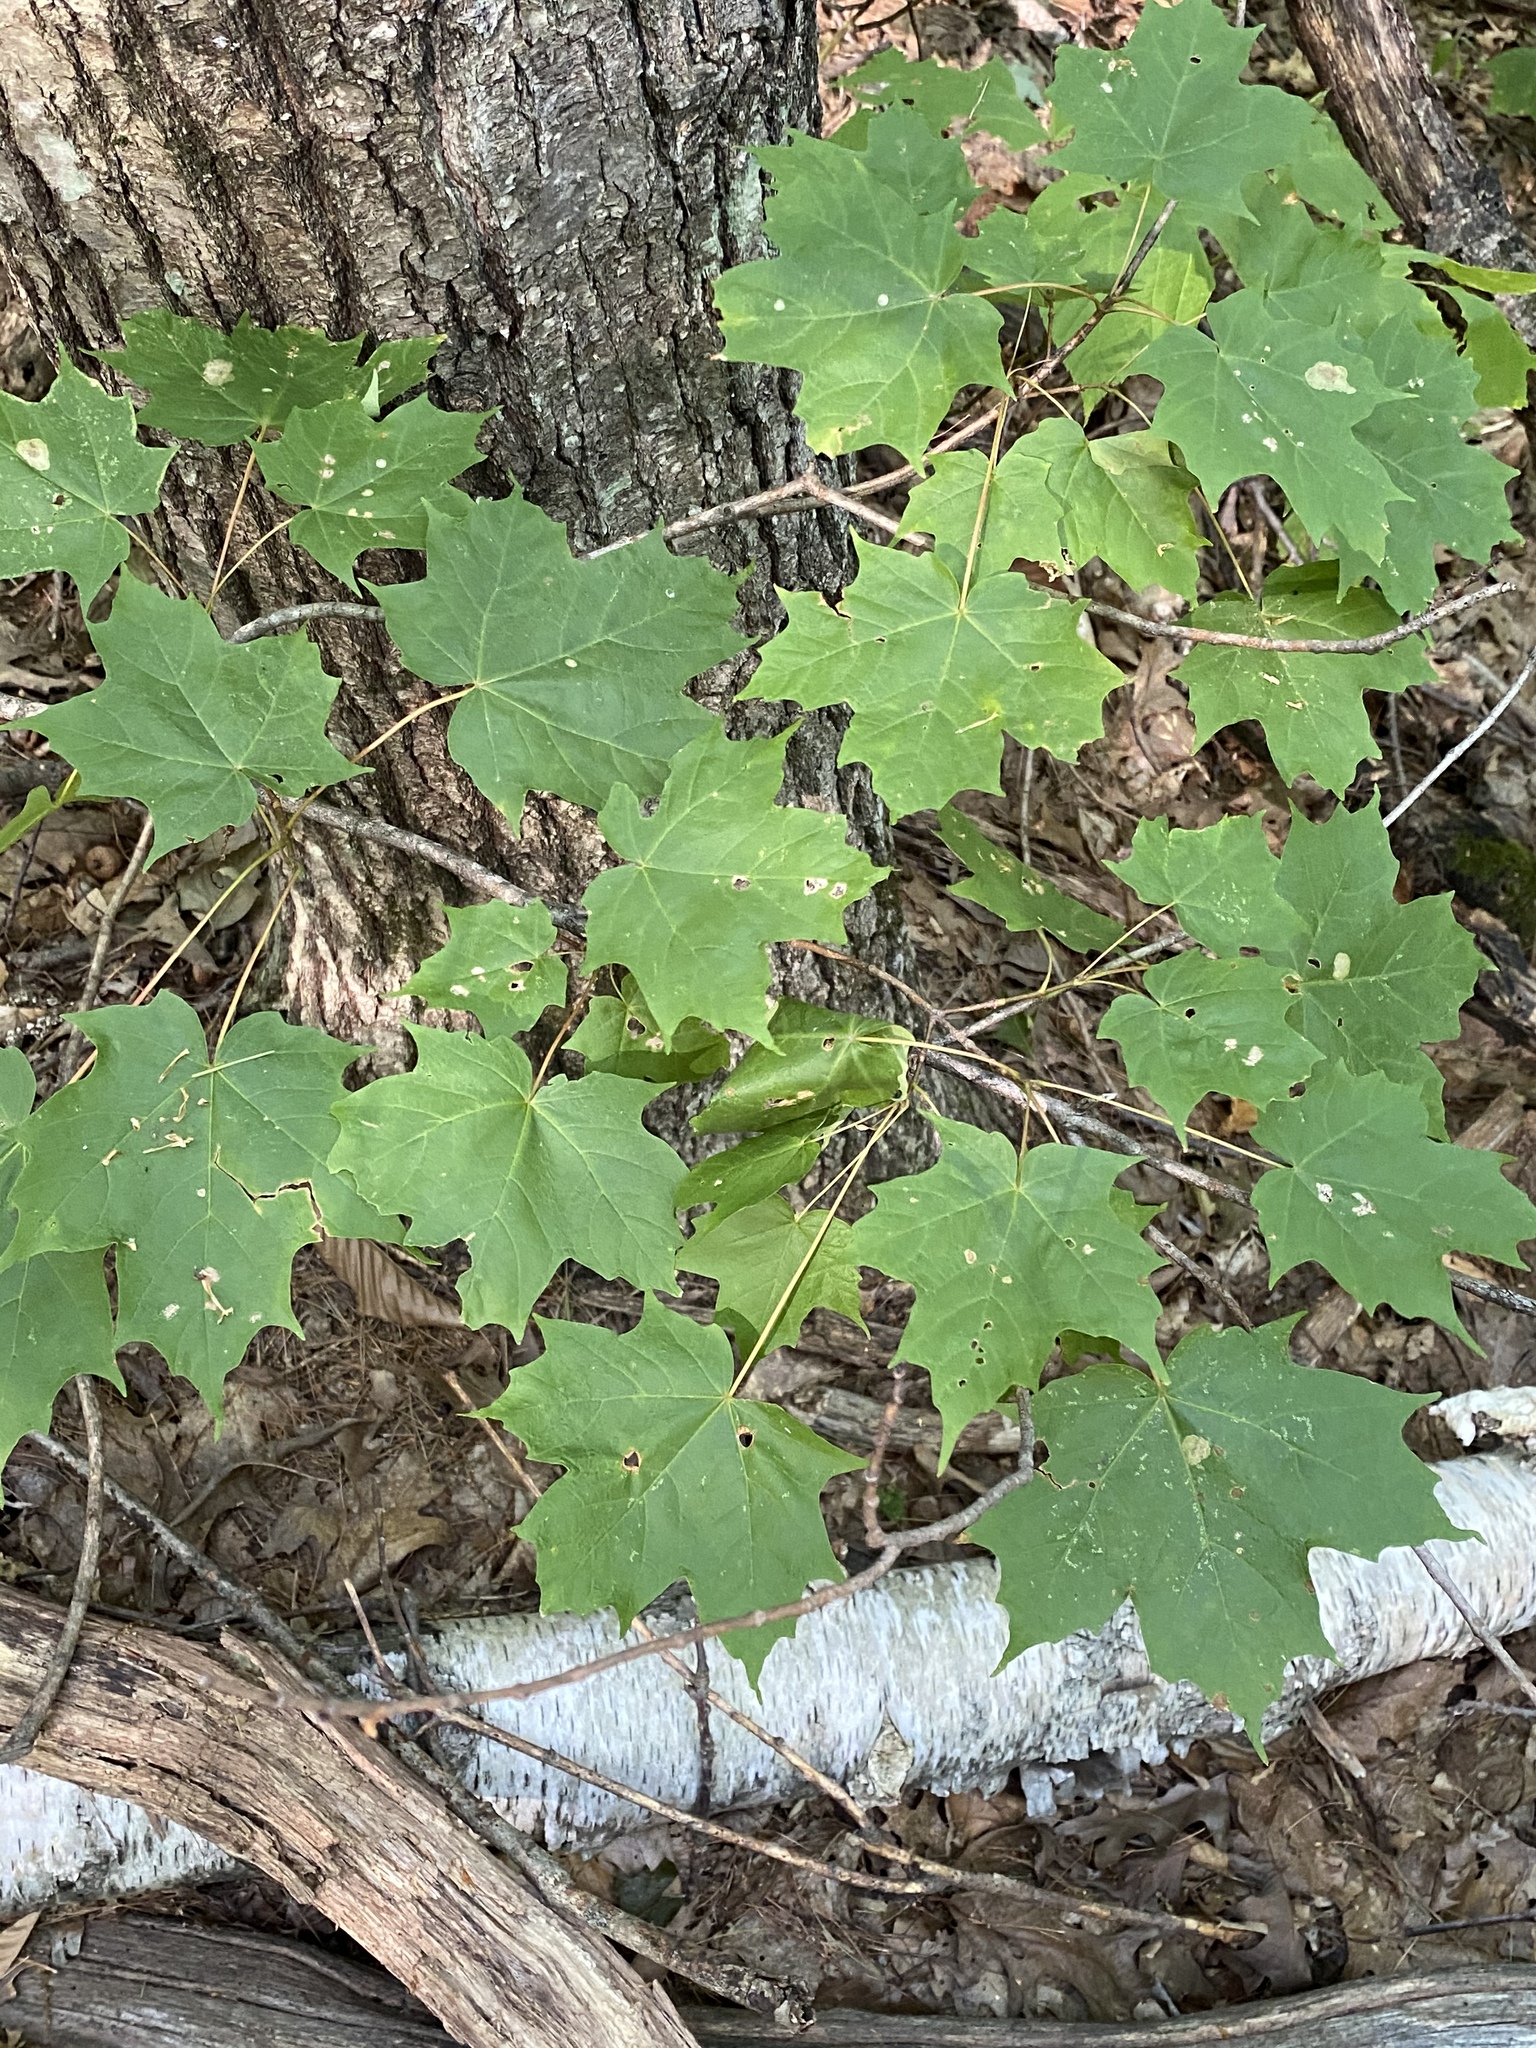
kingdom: Plantae
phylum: Tracheophyta
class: Magnoliopsida
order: Sapindales
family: Sapindaceae
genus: Acer
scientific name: Acer saccharum
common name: Sugar maple
